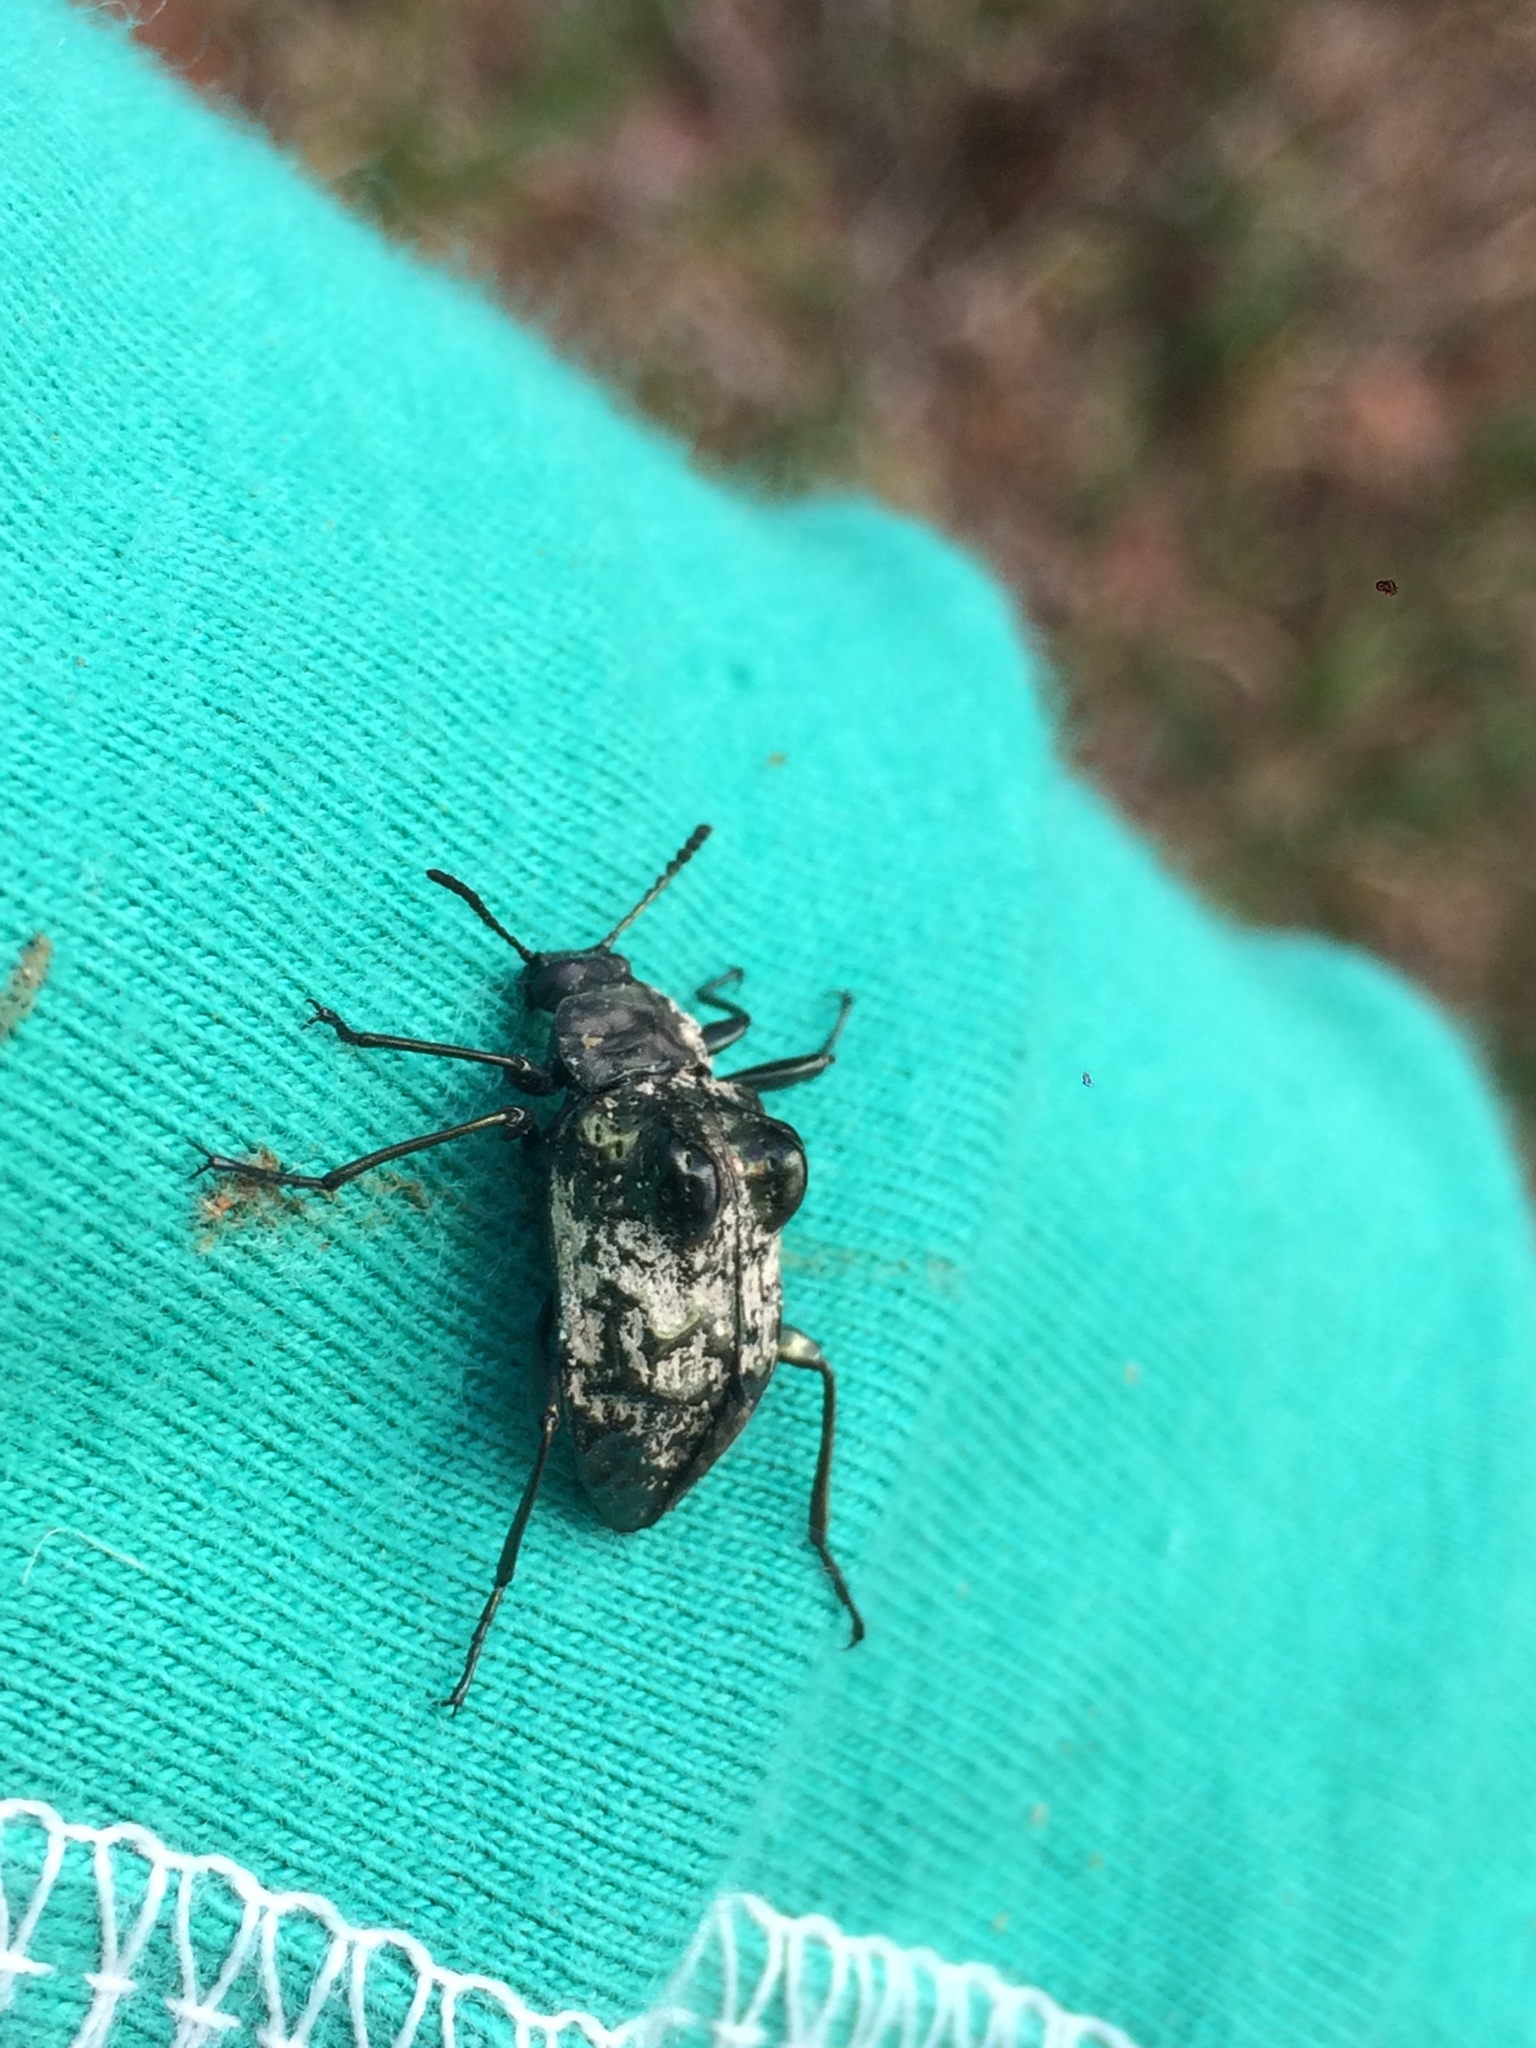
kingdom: Animalia
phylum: Arthropoda
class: Insecta
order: Coleoptera
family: Tenebrionidae
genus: Dicyrtus
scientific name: Dicyrtus
